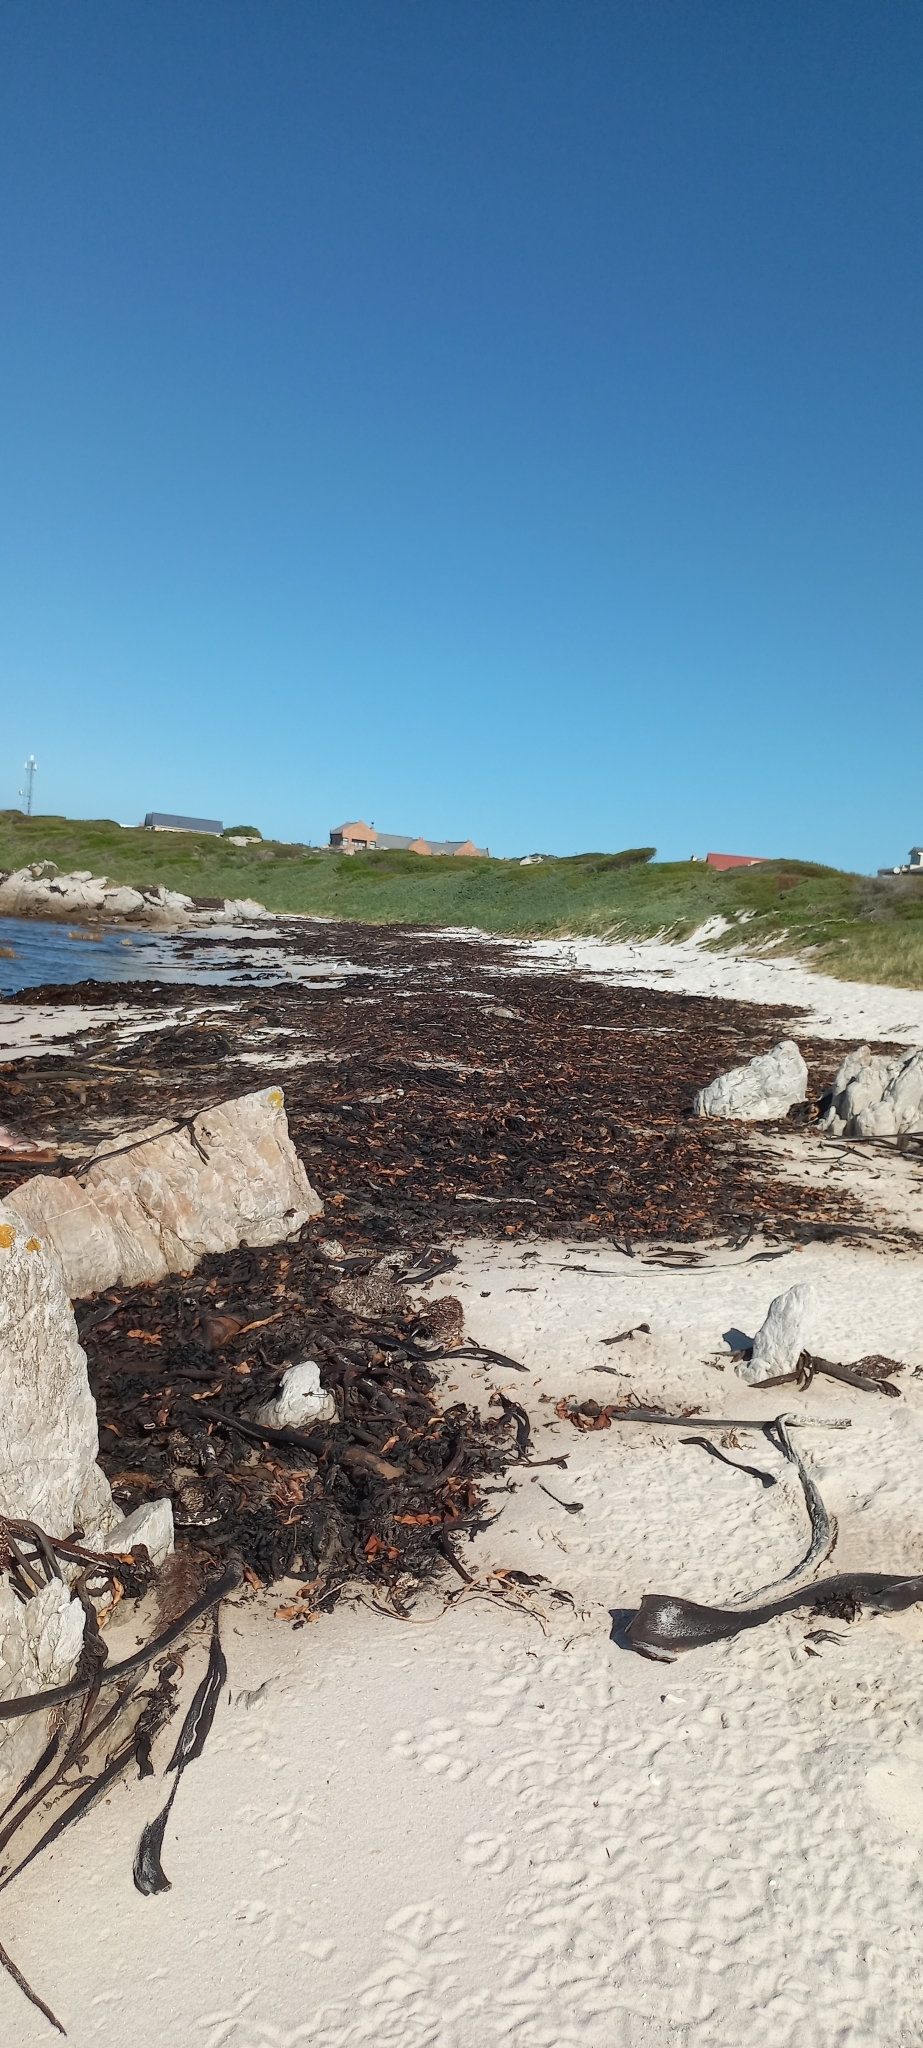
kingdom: Chromista
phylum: Ochrophyta
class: Phaeophyceae
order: Laminariales
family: Lessoniaceae
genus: Ecklonia
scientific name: Ecklonia
